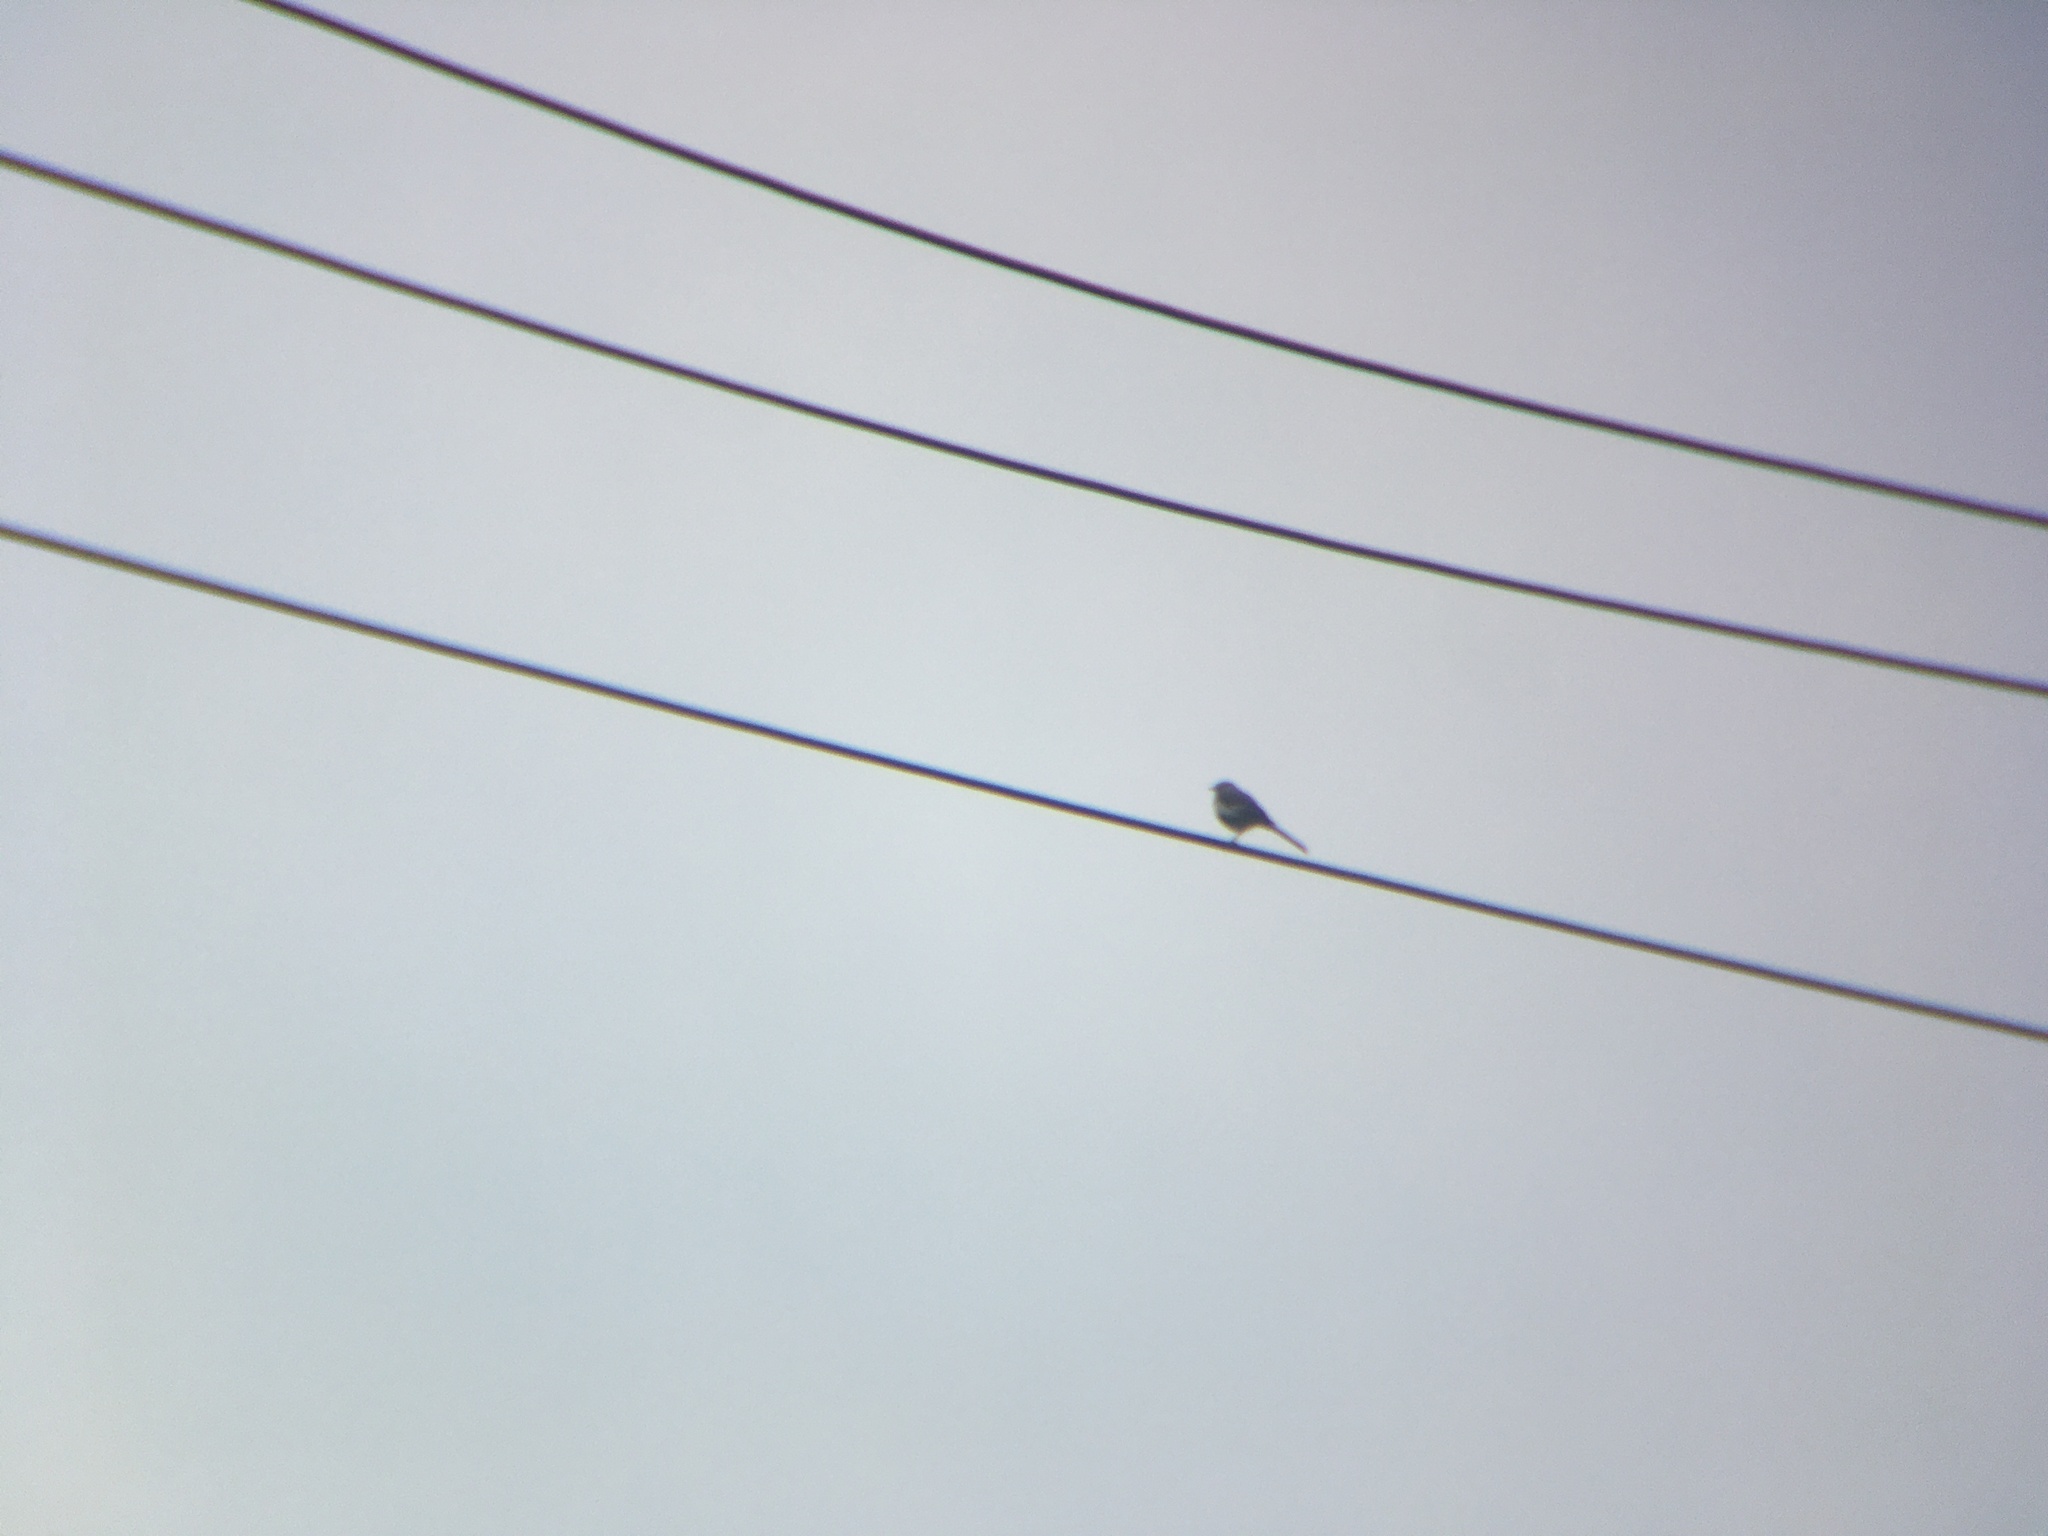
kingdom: Animalia
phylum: Chordata
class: Aves
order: Passeriformes
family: Mimidae
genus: Mimus
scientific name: Mimus polyglottos
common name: Northern mockingbird
